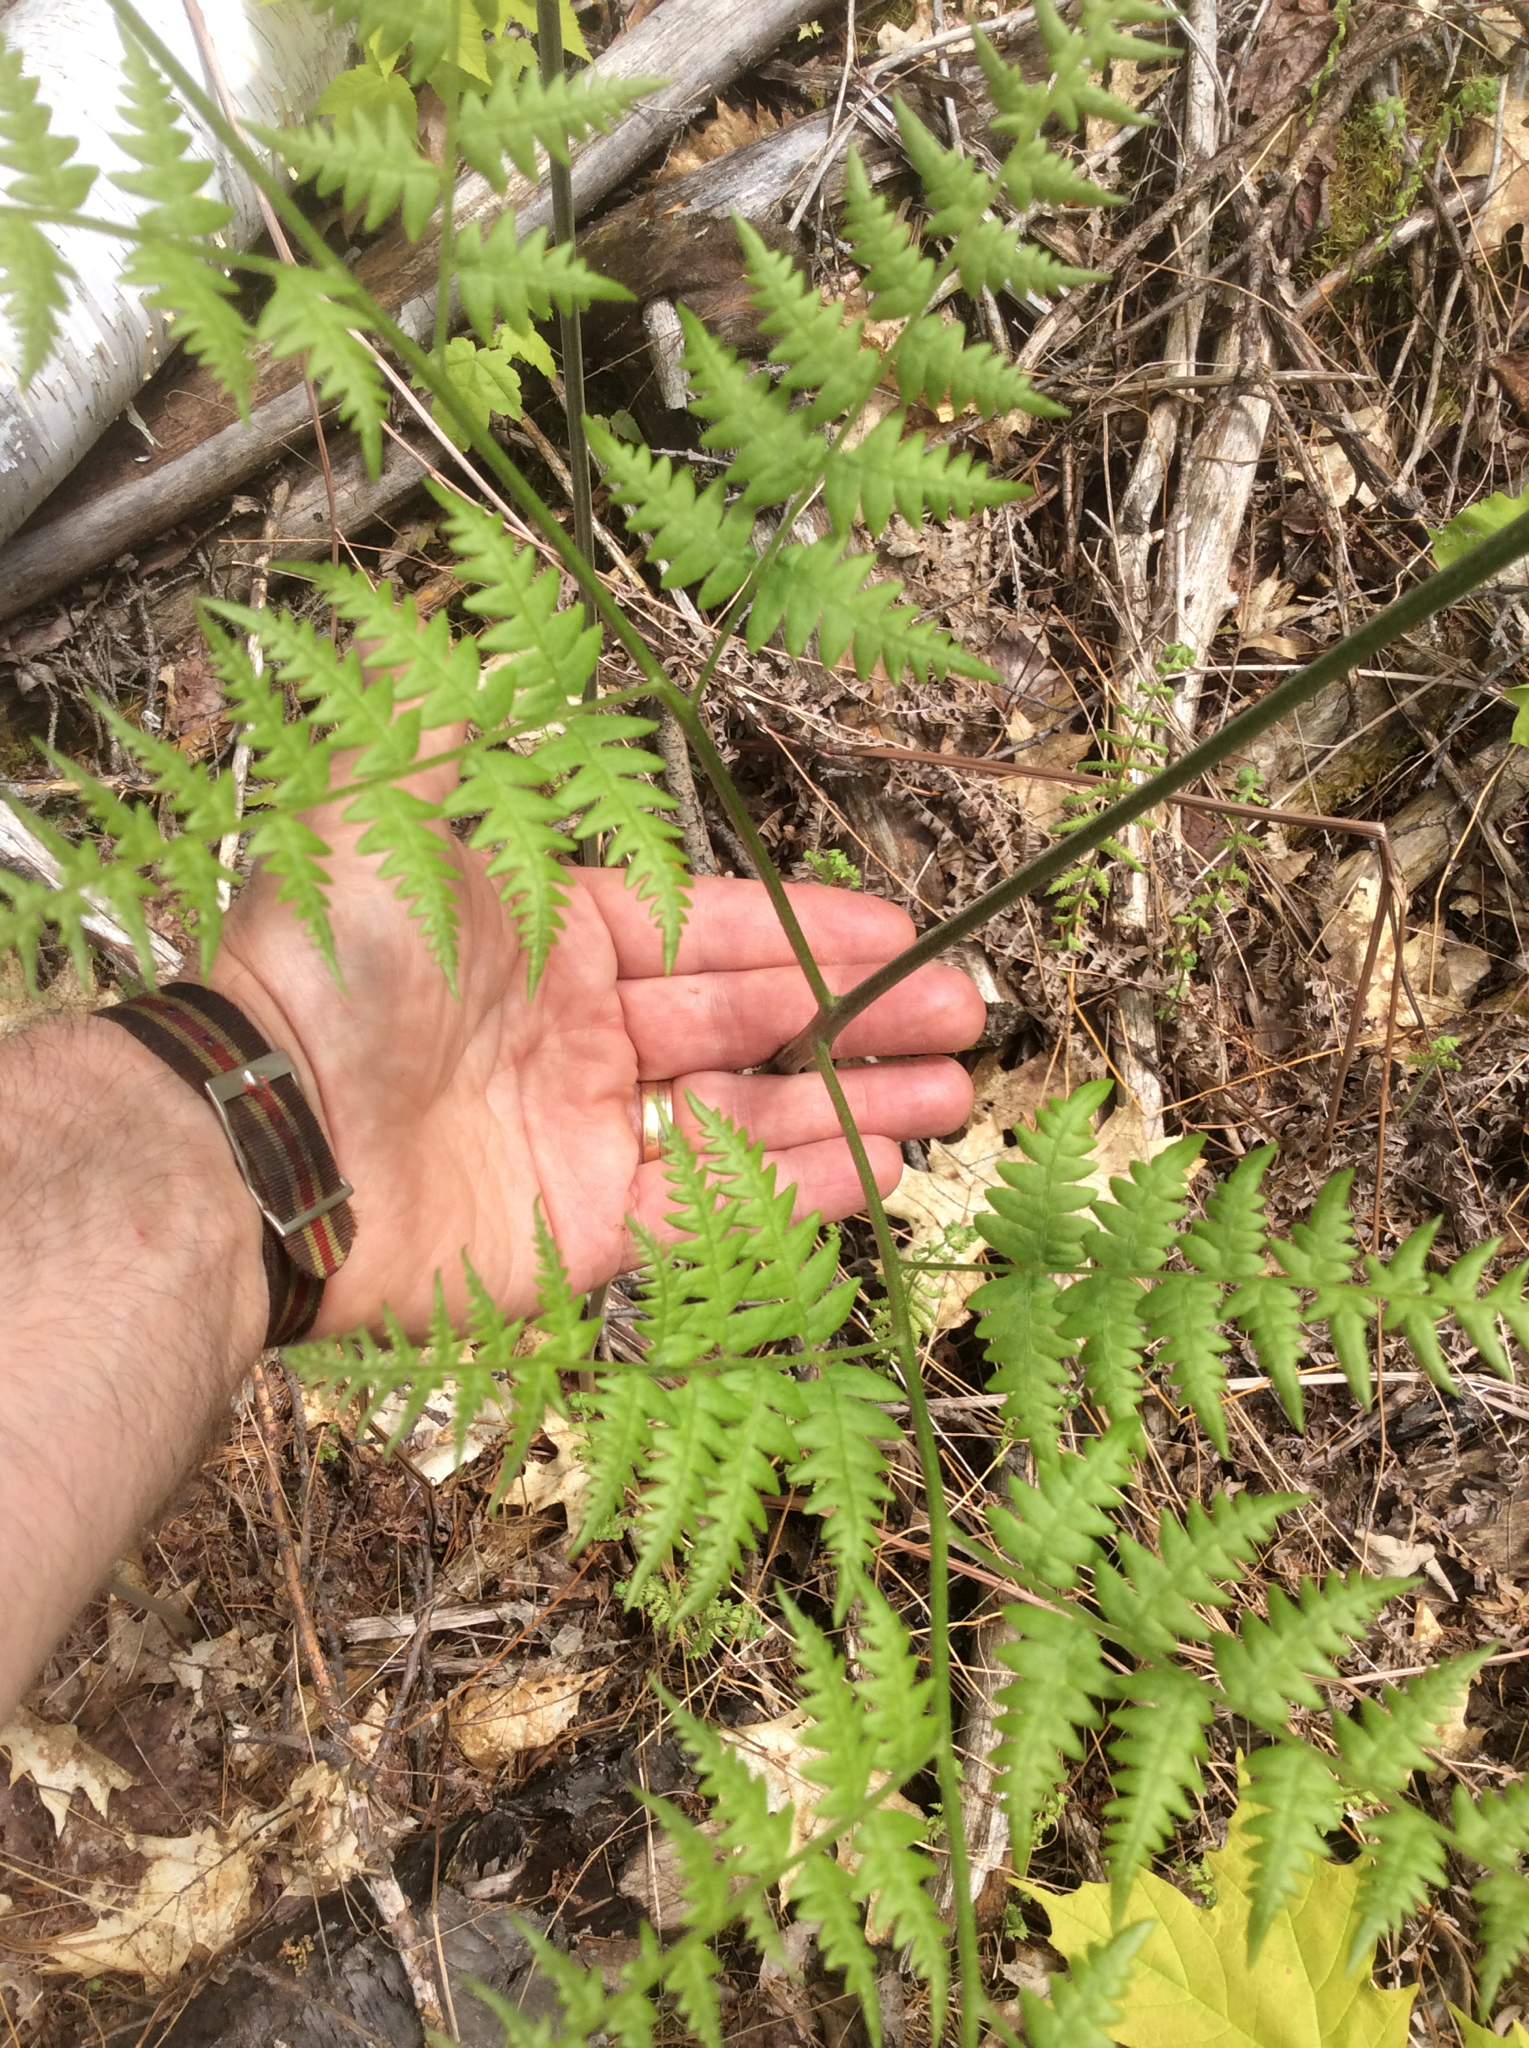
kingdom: Plantae
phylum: Tracheophyta
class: Polypodiopsida
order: Polypodiales
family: Dennstaedtiaceae
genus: Pteridium
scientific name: Pteridium aquilinum
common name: Bracken
